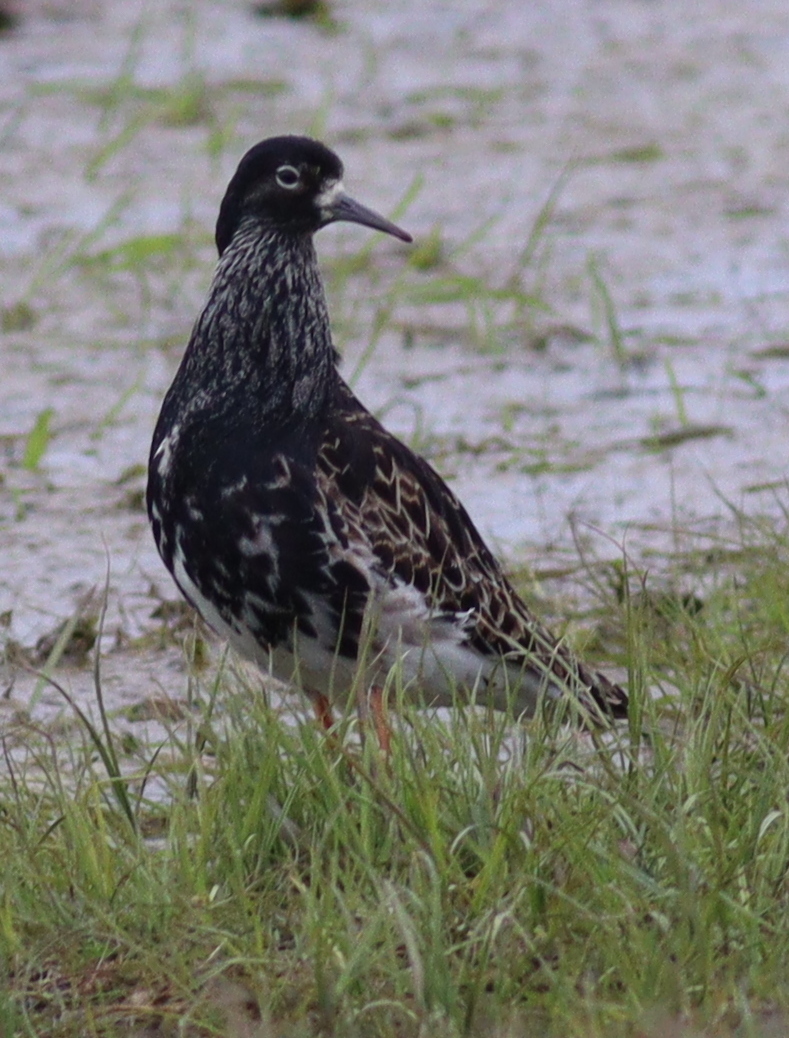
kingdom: Animalia
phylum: Chordata
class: Aves
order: Charadriiformes
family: Scolopacidae
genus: Calidris
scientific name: Calidris pugnax
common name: Ruff
